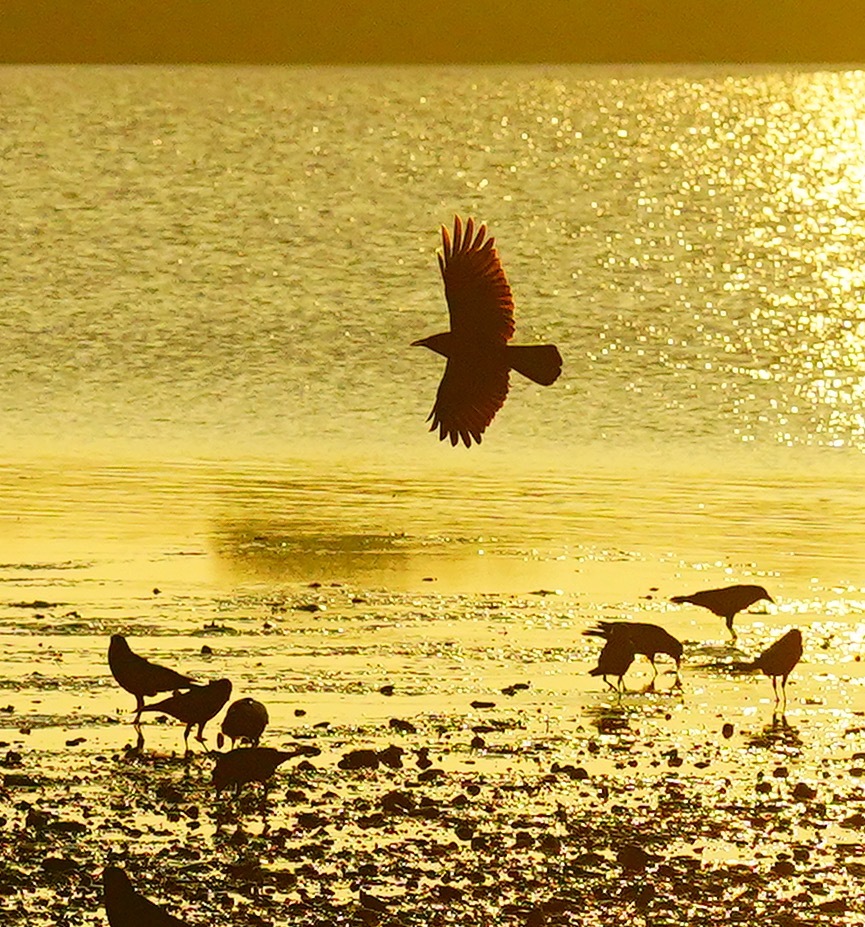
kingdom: Animalia
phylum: Chordata
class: Aves
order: Passeriformes
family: Corvidae
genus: Corvus
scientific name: Corvus brachyrhynchos
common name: American crow
